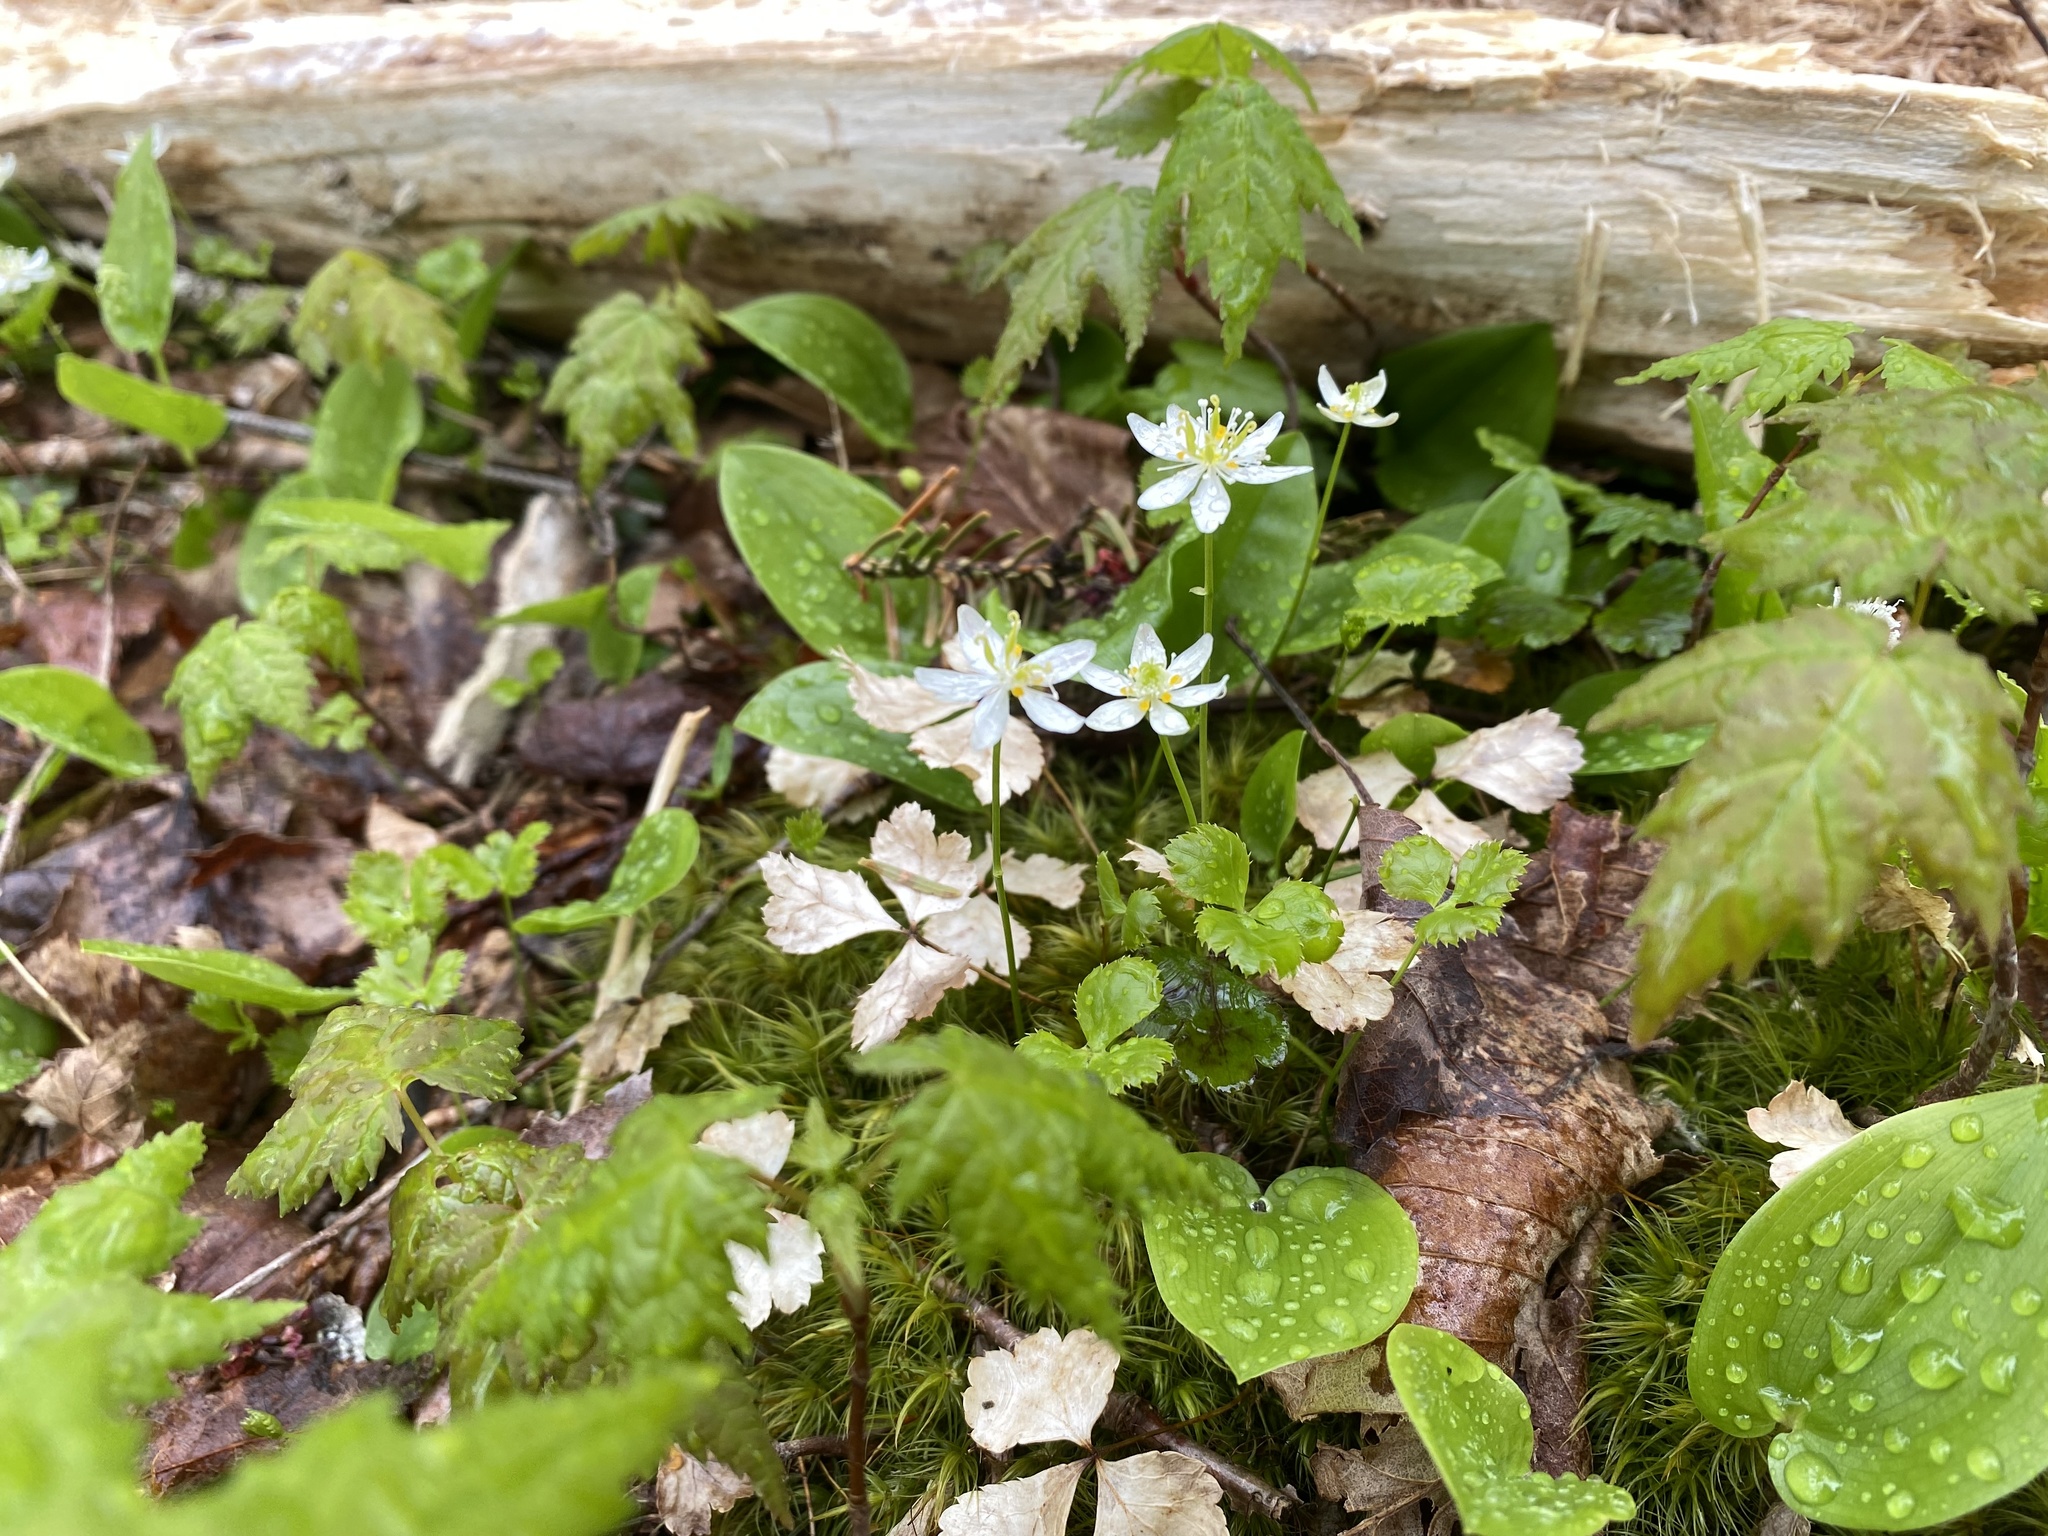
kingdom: Plantae
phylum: Tracheophyta
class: Magnoliopsida
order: Ranunculales
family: Ranunculaceae
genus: Coptis
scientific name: Coptis trifolia
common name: Canker-root
